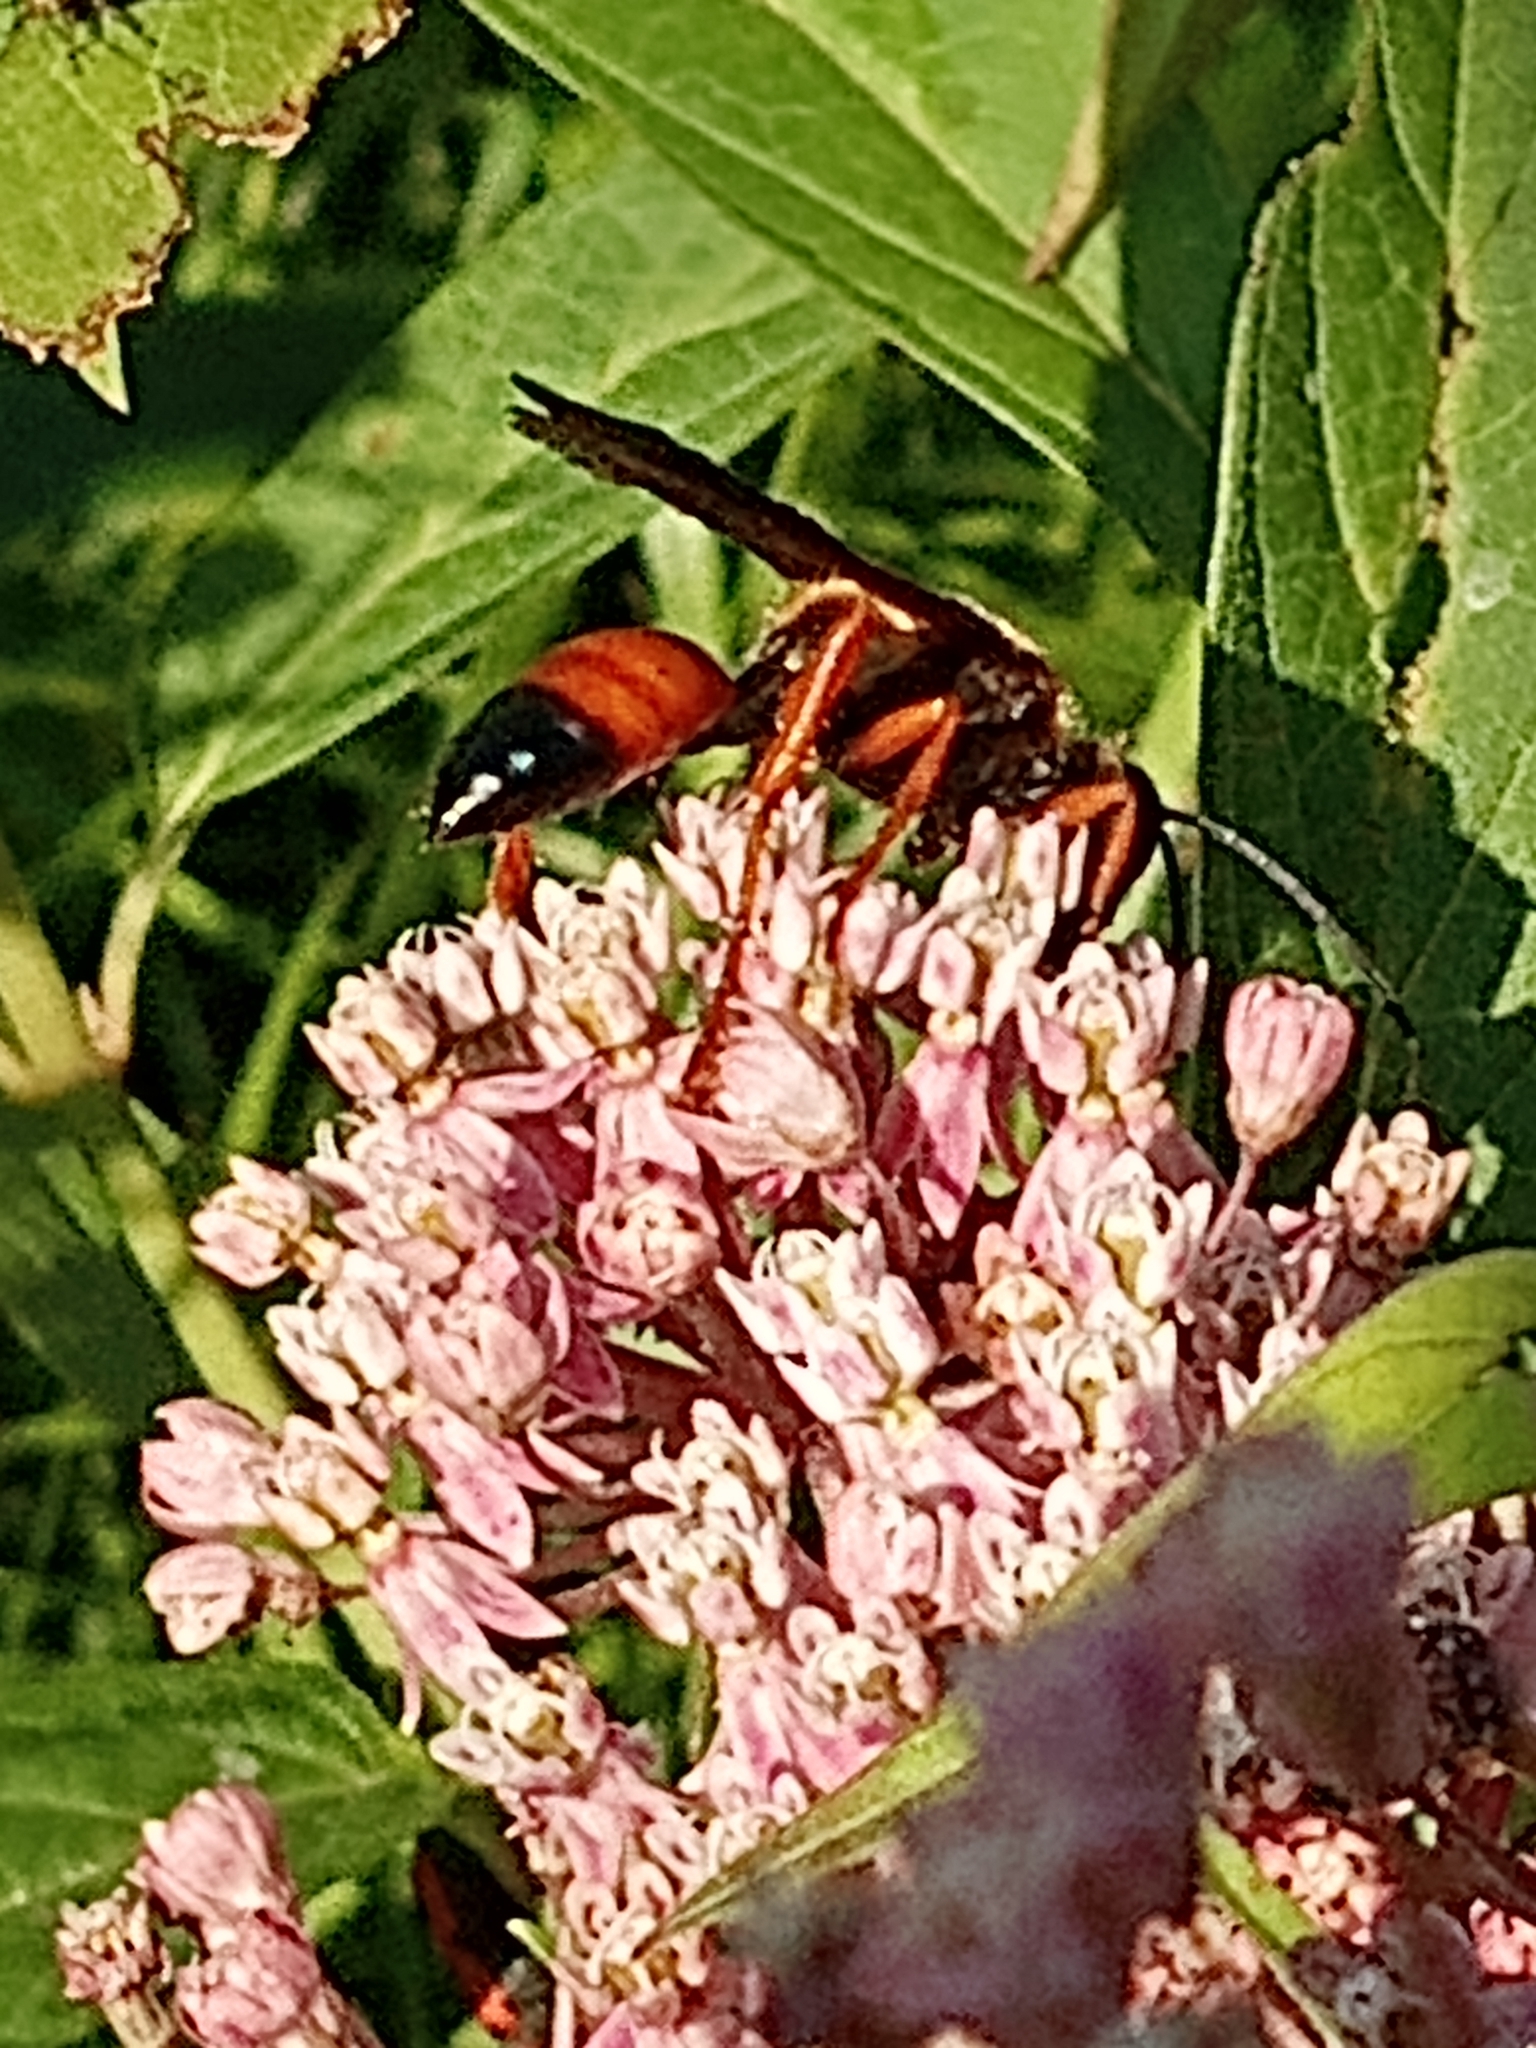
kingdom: Animalia
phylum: Arthropoda
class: Insecta
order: Hymenoptera
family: Sphecidae
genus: Sphex
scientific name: Sphex ichneumoneus
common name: Great golden digger wasp
